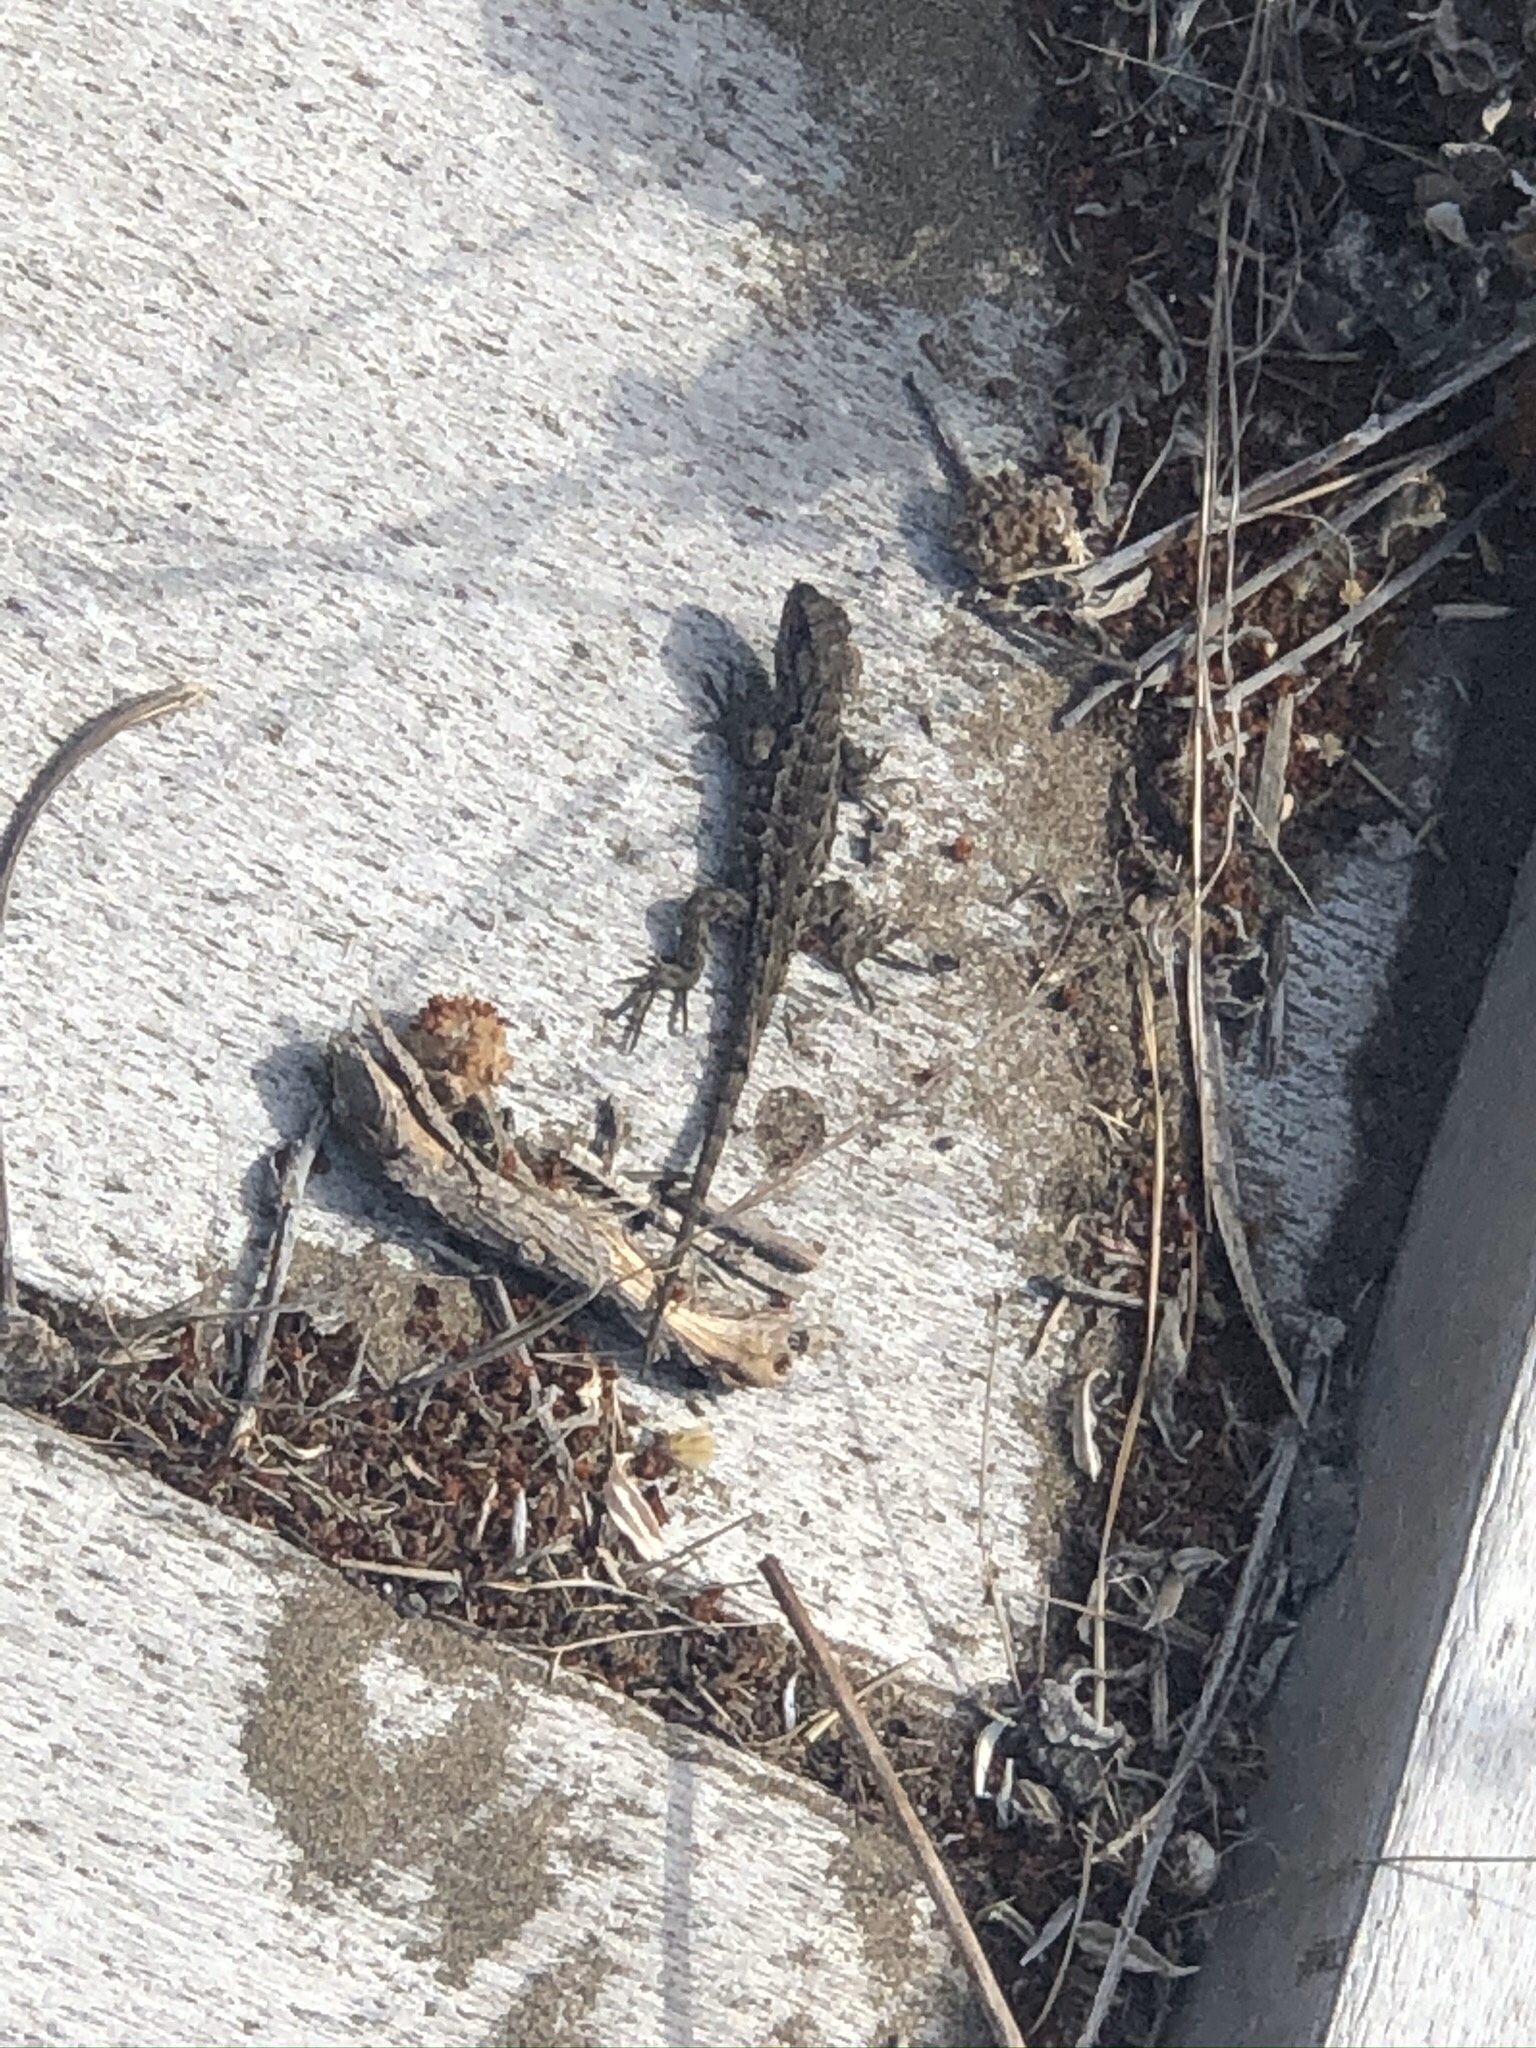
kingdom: Animalia
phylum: Chordata
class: Squamata
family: Phrynosomatidae
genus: Sceloporus
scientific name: Sceloporus occidentalis
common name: Western fence lizard
